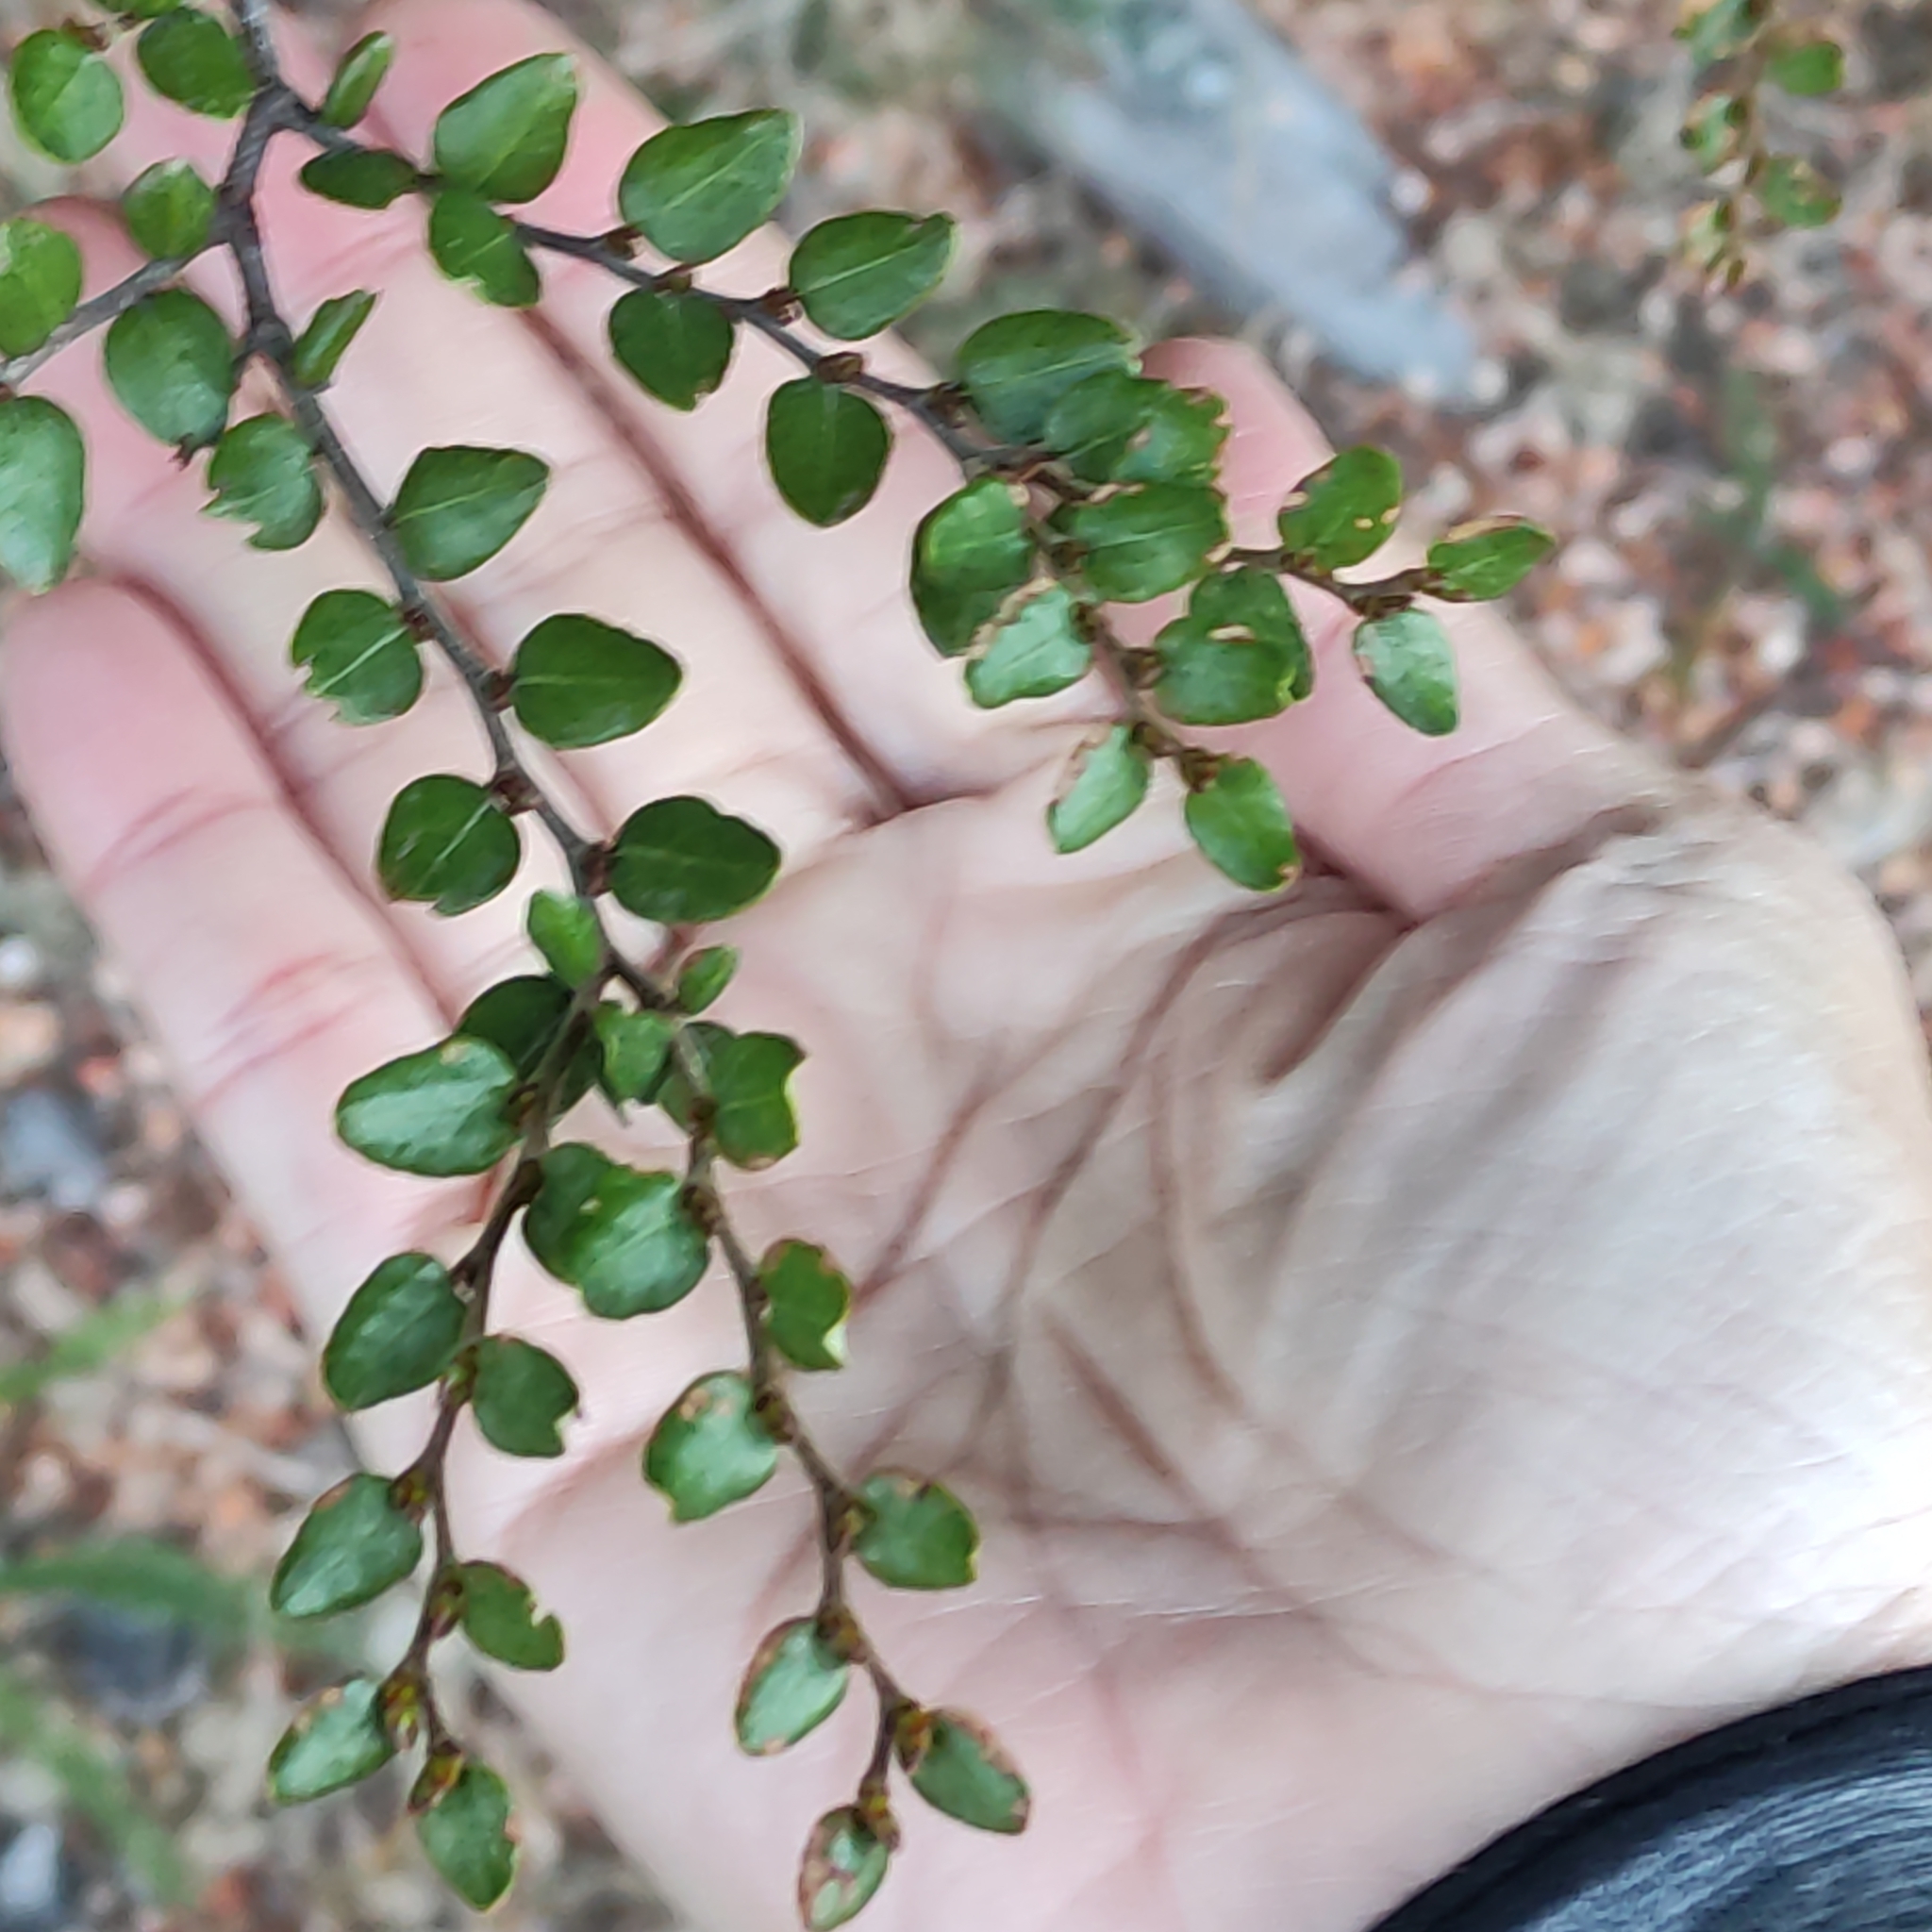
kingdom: Plantae
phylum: Tracheophyta
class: Magnoliopsida
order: Fagales
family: Nothofagaceae
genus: Nothofagus
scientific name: Nothofagus cliffortioides
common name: Mountain beech
